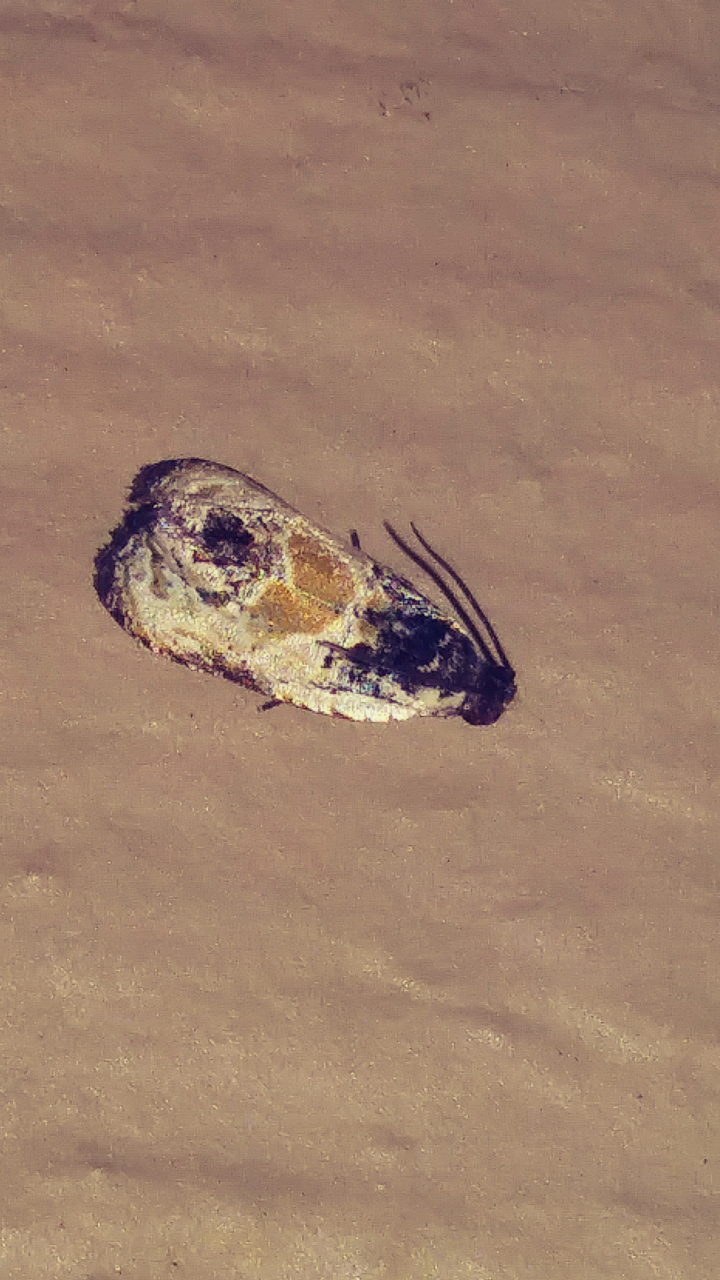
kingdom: Animalia
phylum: Arthropoda
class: Insecta
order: Lepidoptera
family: Tortricidae
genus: Olethreutes
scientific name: Olethreutes griseoalbana
